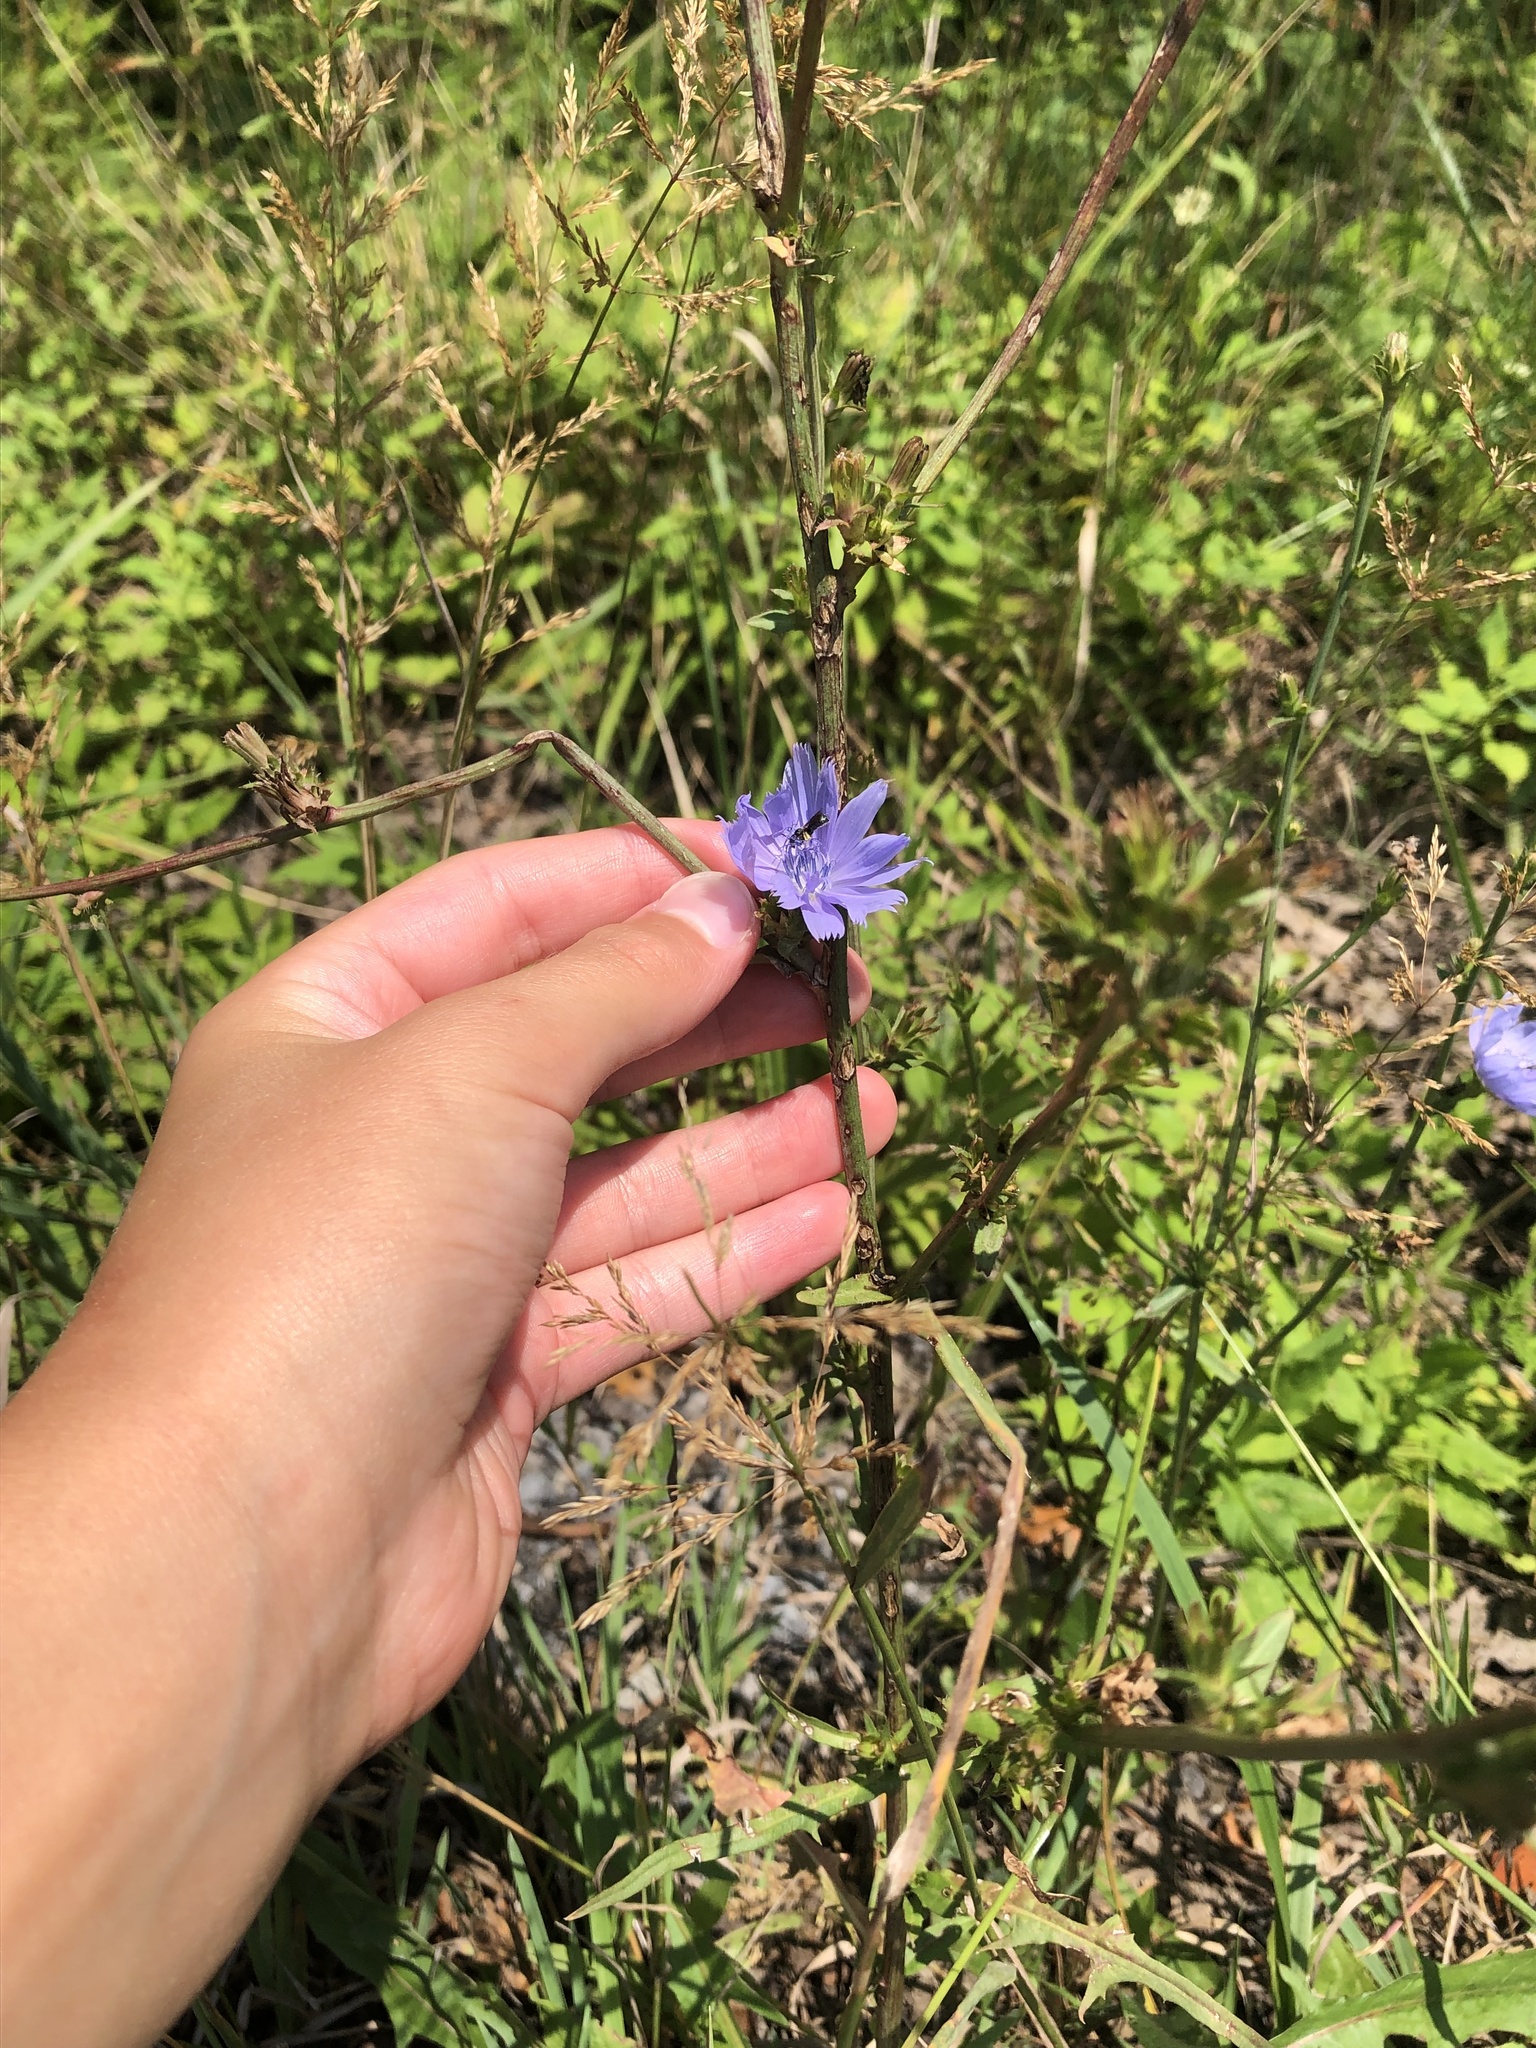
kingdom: Plantae
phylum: Tracheophyta
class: Magnoliopsida
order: Asterales
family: Asteraceae
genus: Cichorium
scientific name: Cichorium intybus
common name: Chicory
